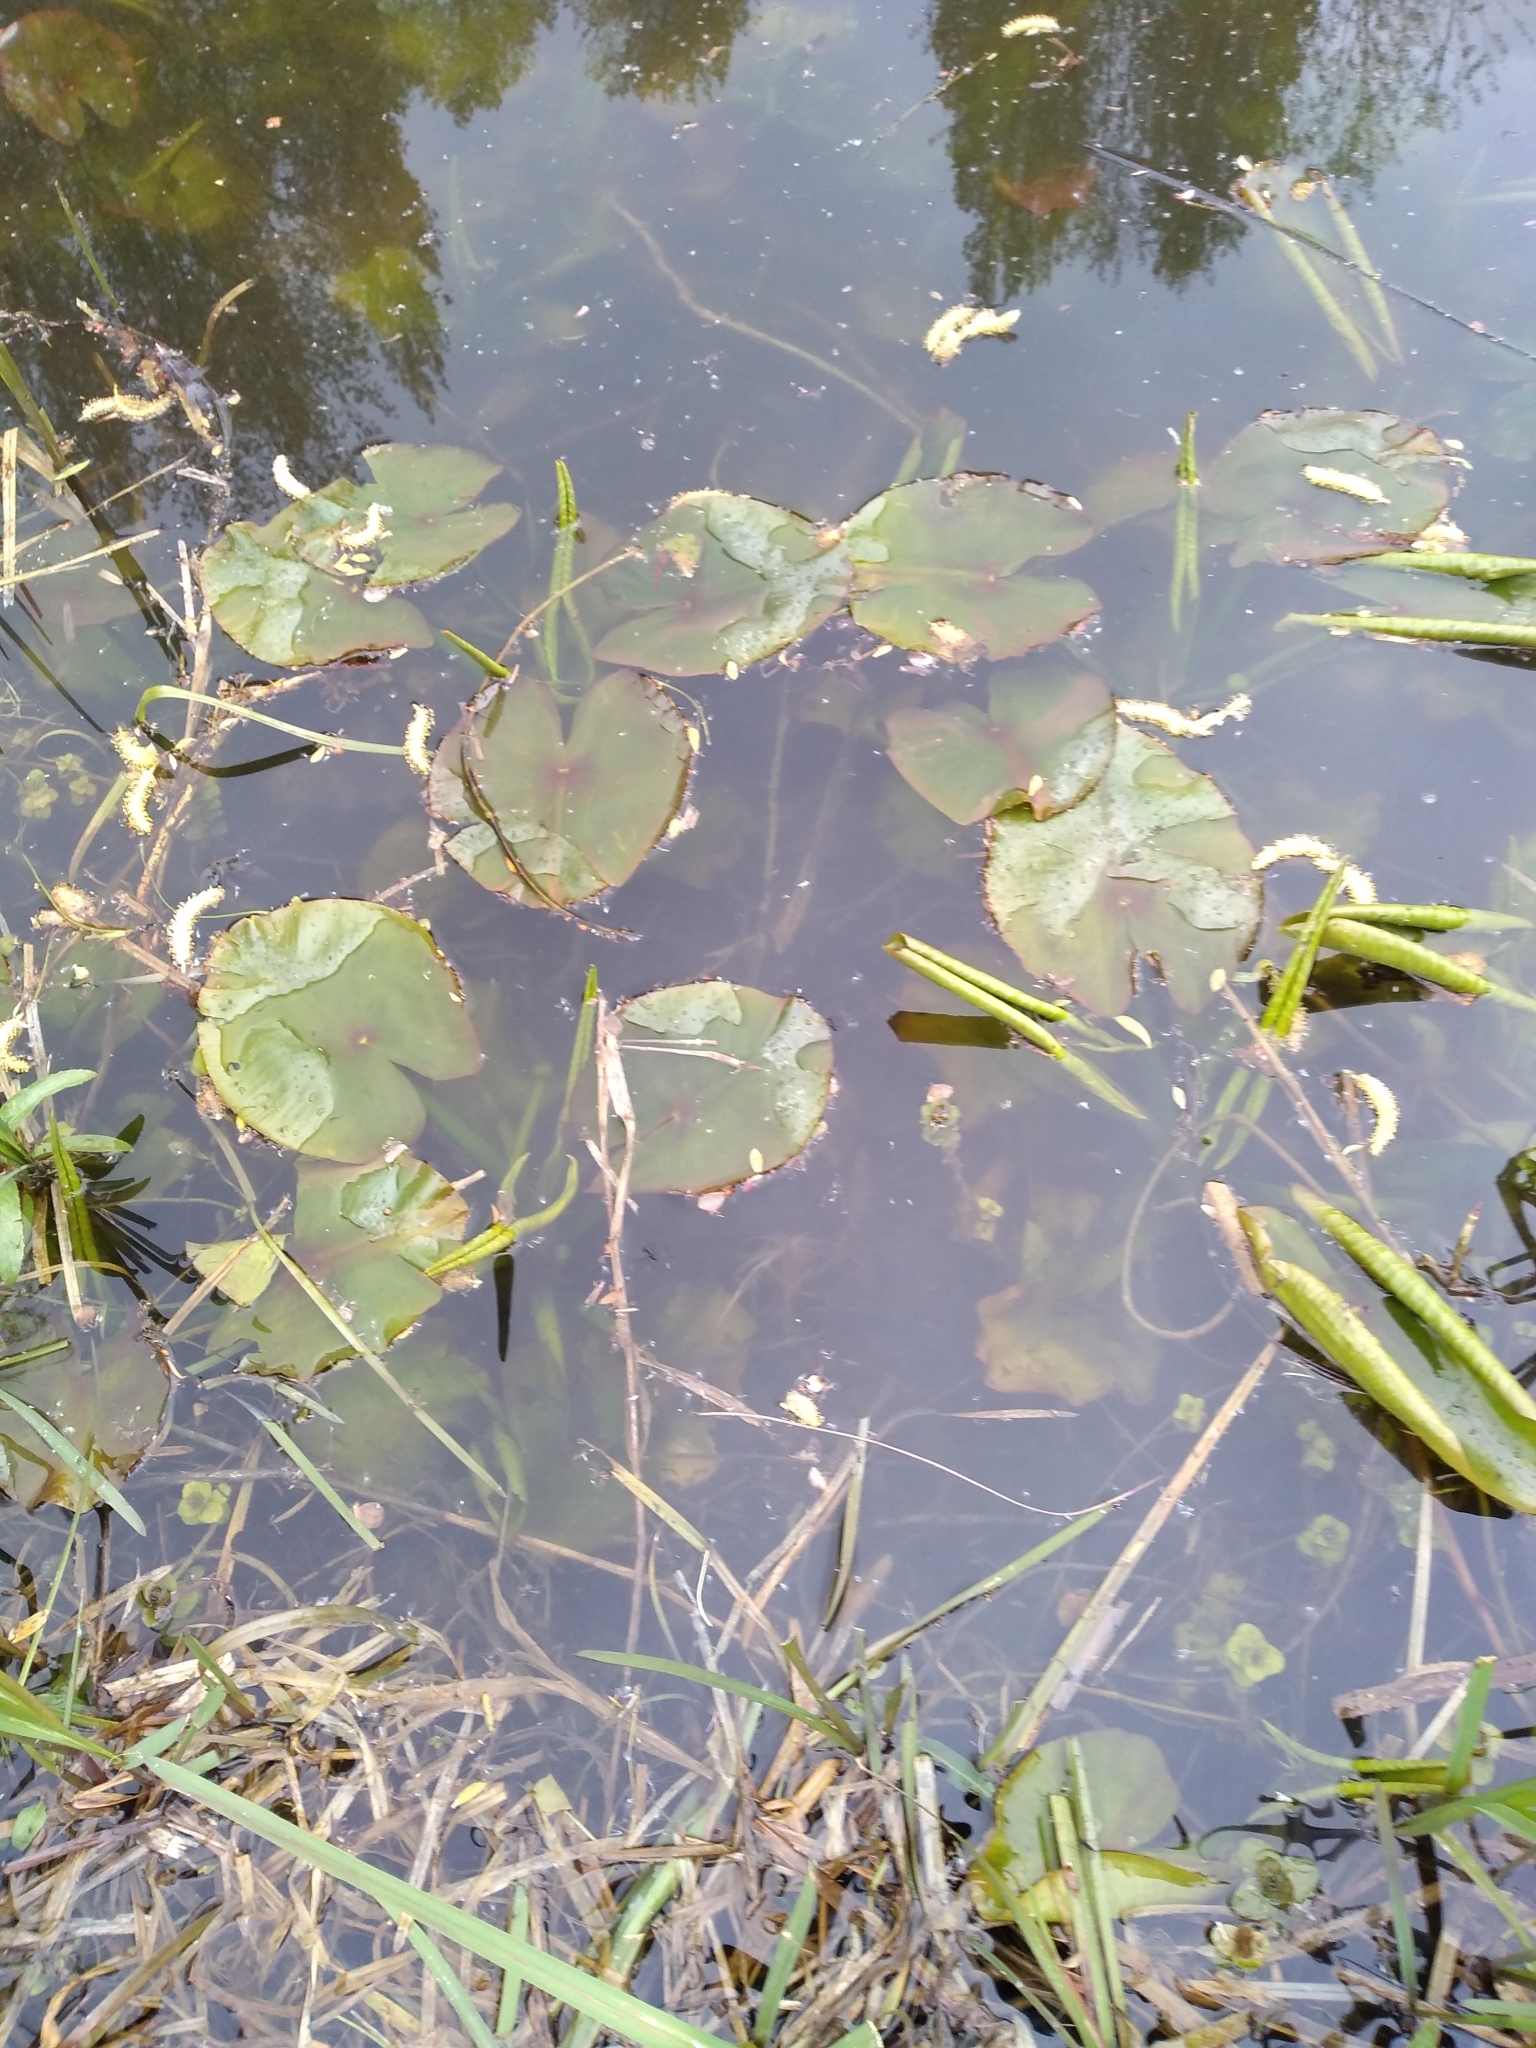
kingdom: Plantae
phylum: Tracheophyta
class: Magnoliopsida
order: Nymphaeales
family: Nymphaeaceae
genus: Nuphar
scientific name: Nuphar lutea
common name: Yellow water-lily
